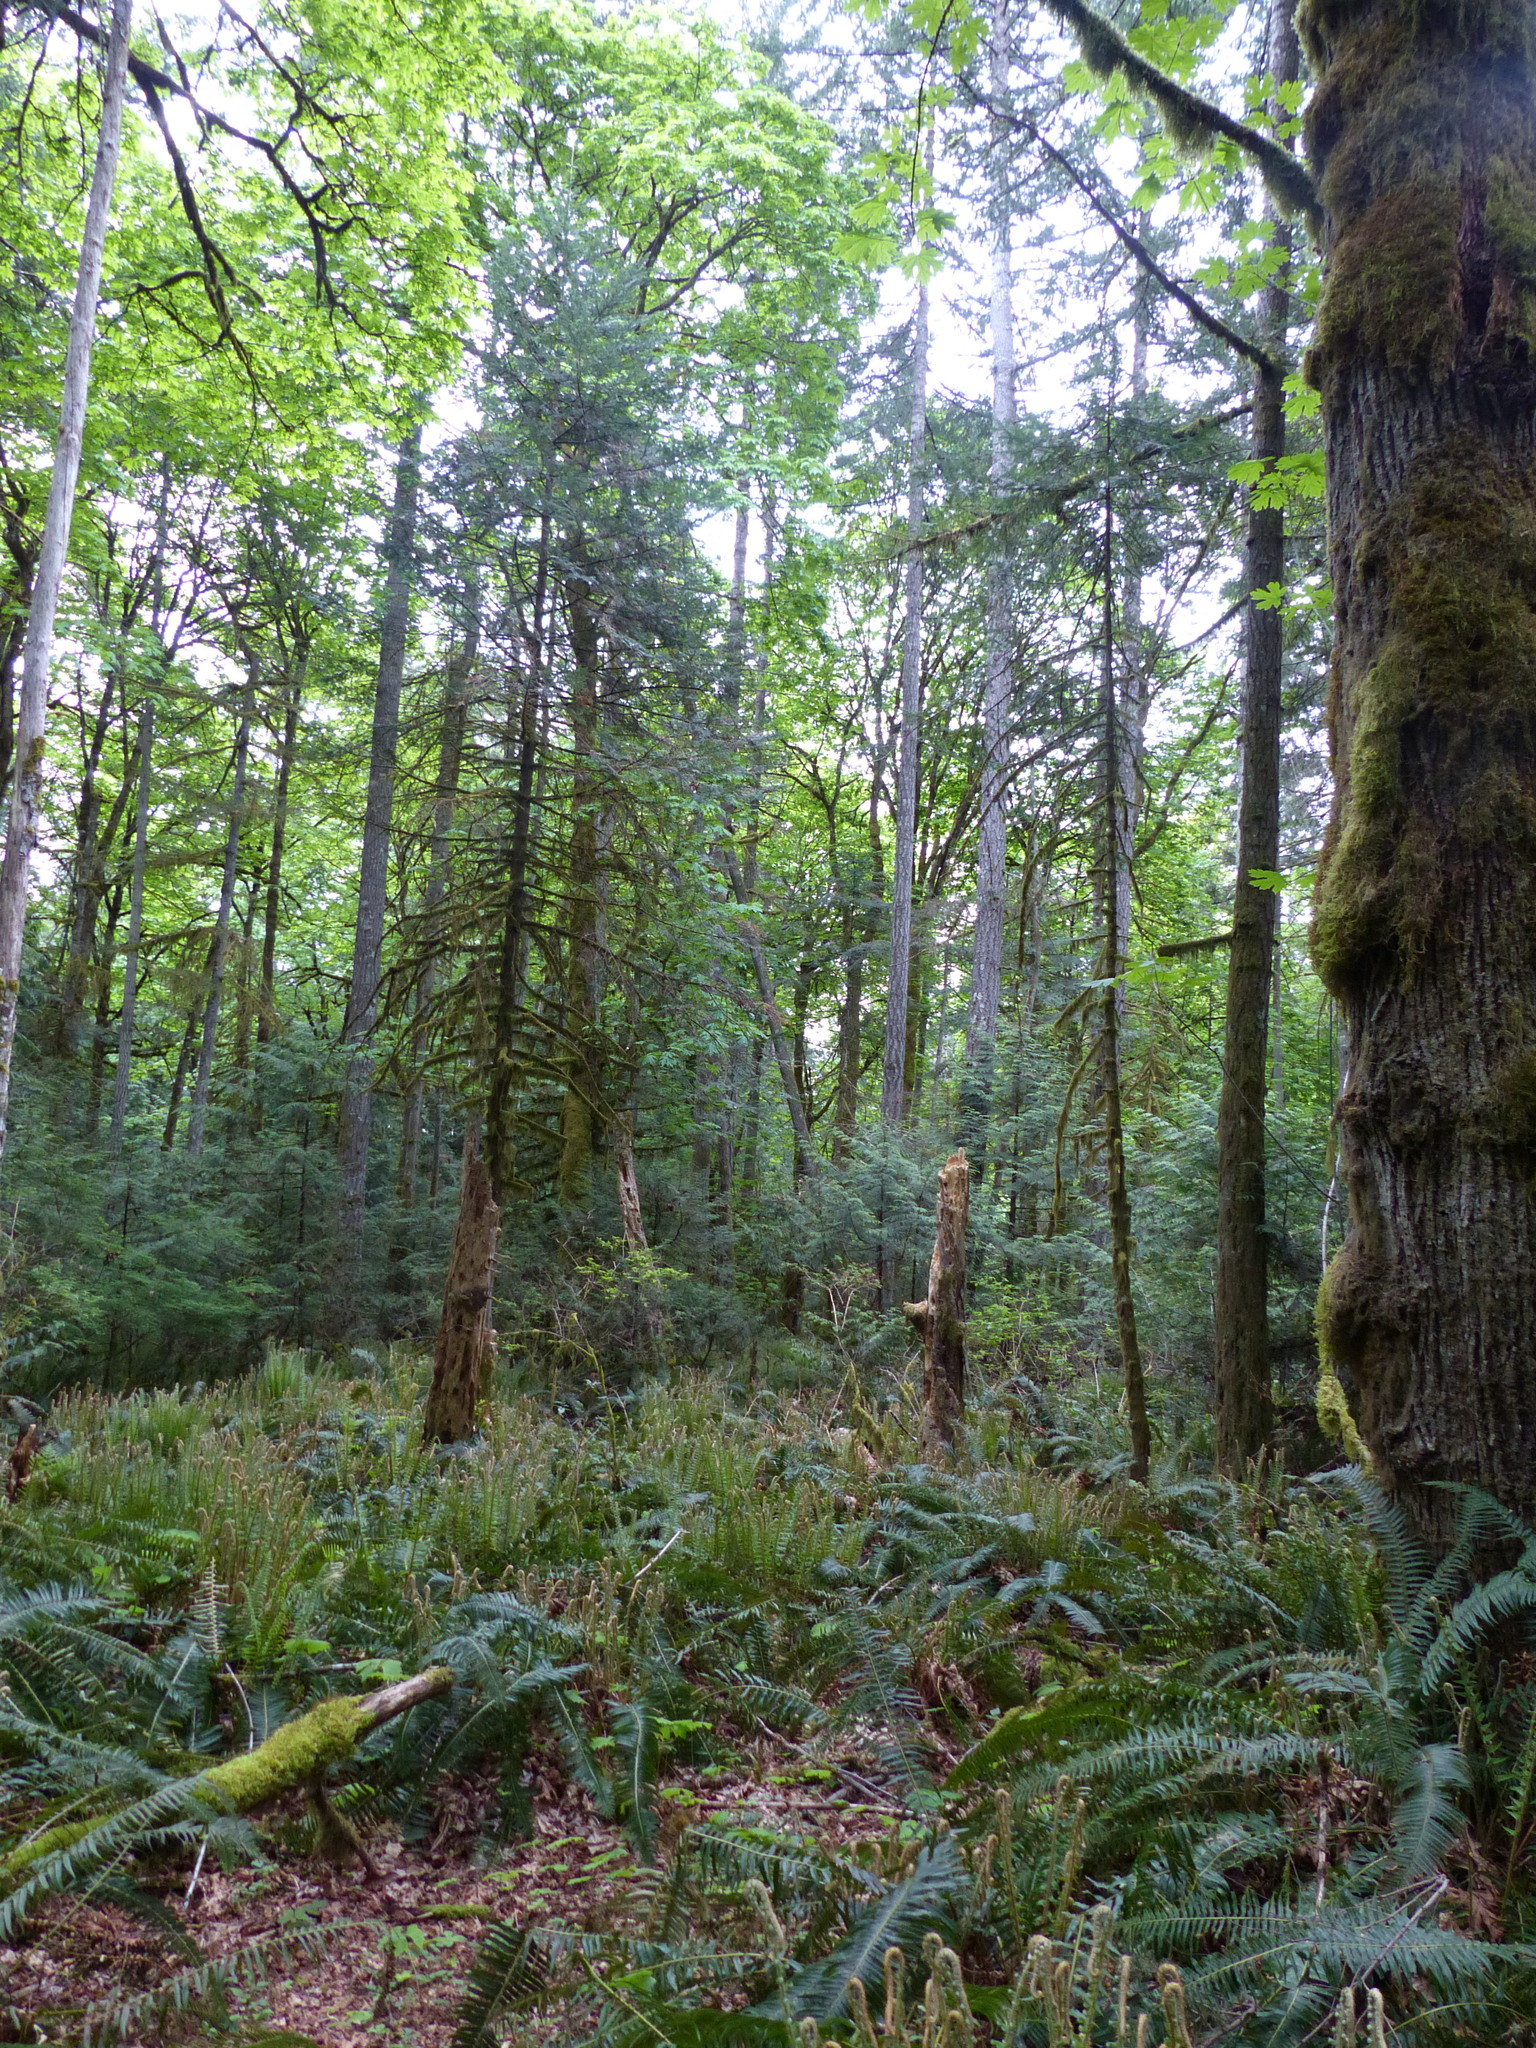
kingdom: Plantae
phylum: Tracheophyta
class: Magnoliopsida
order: Sapindales
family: Sapindaceae
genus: Acer
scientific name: Acer macrophyllum
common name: Oregon maple
